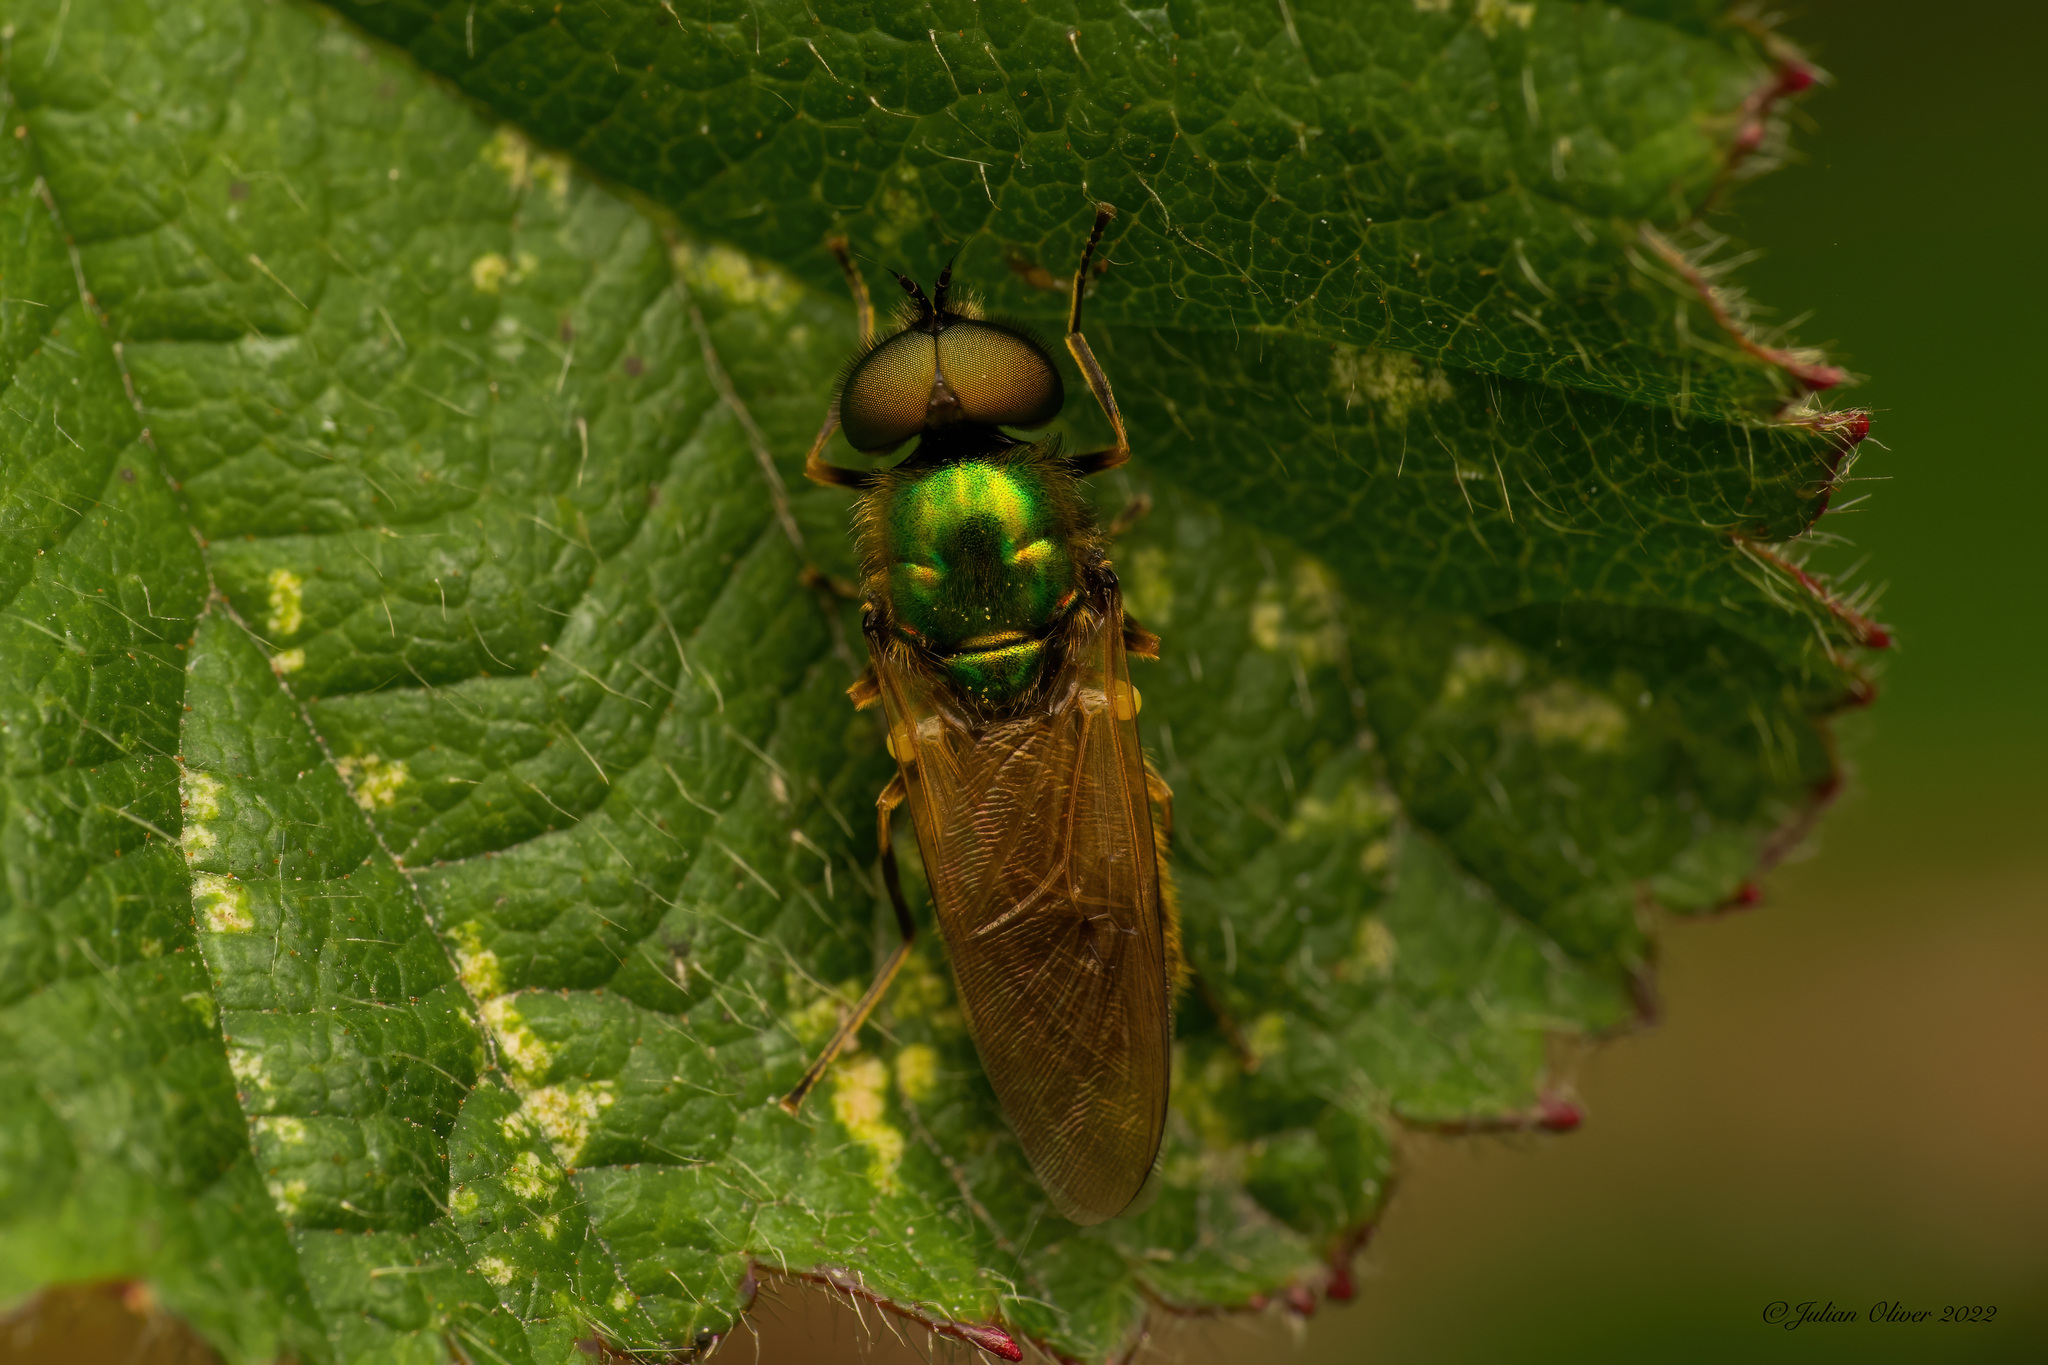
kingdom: Animalia
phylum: Arthropoda
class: Insecta
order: Diptera
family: Stratiomyidae
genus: Chloromyia
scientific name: Chloromyia formosa
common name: Soldier fly
